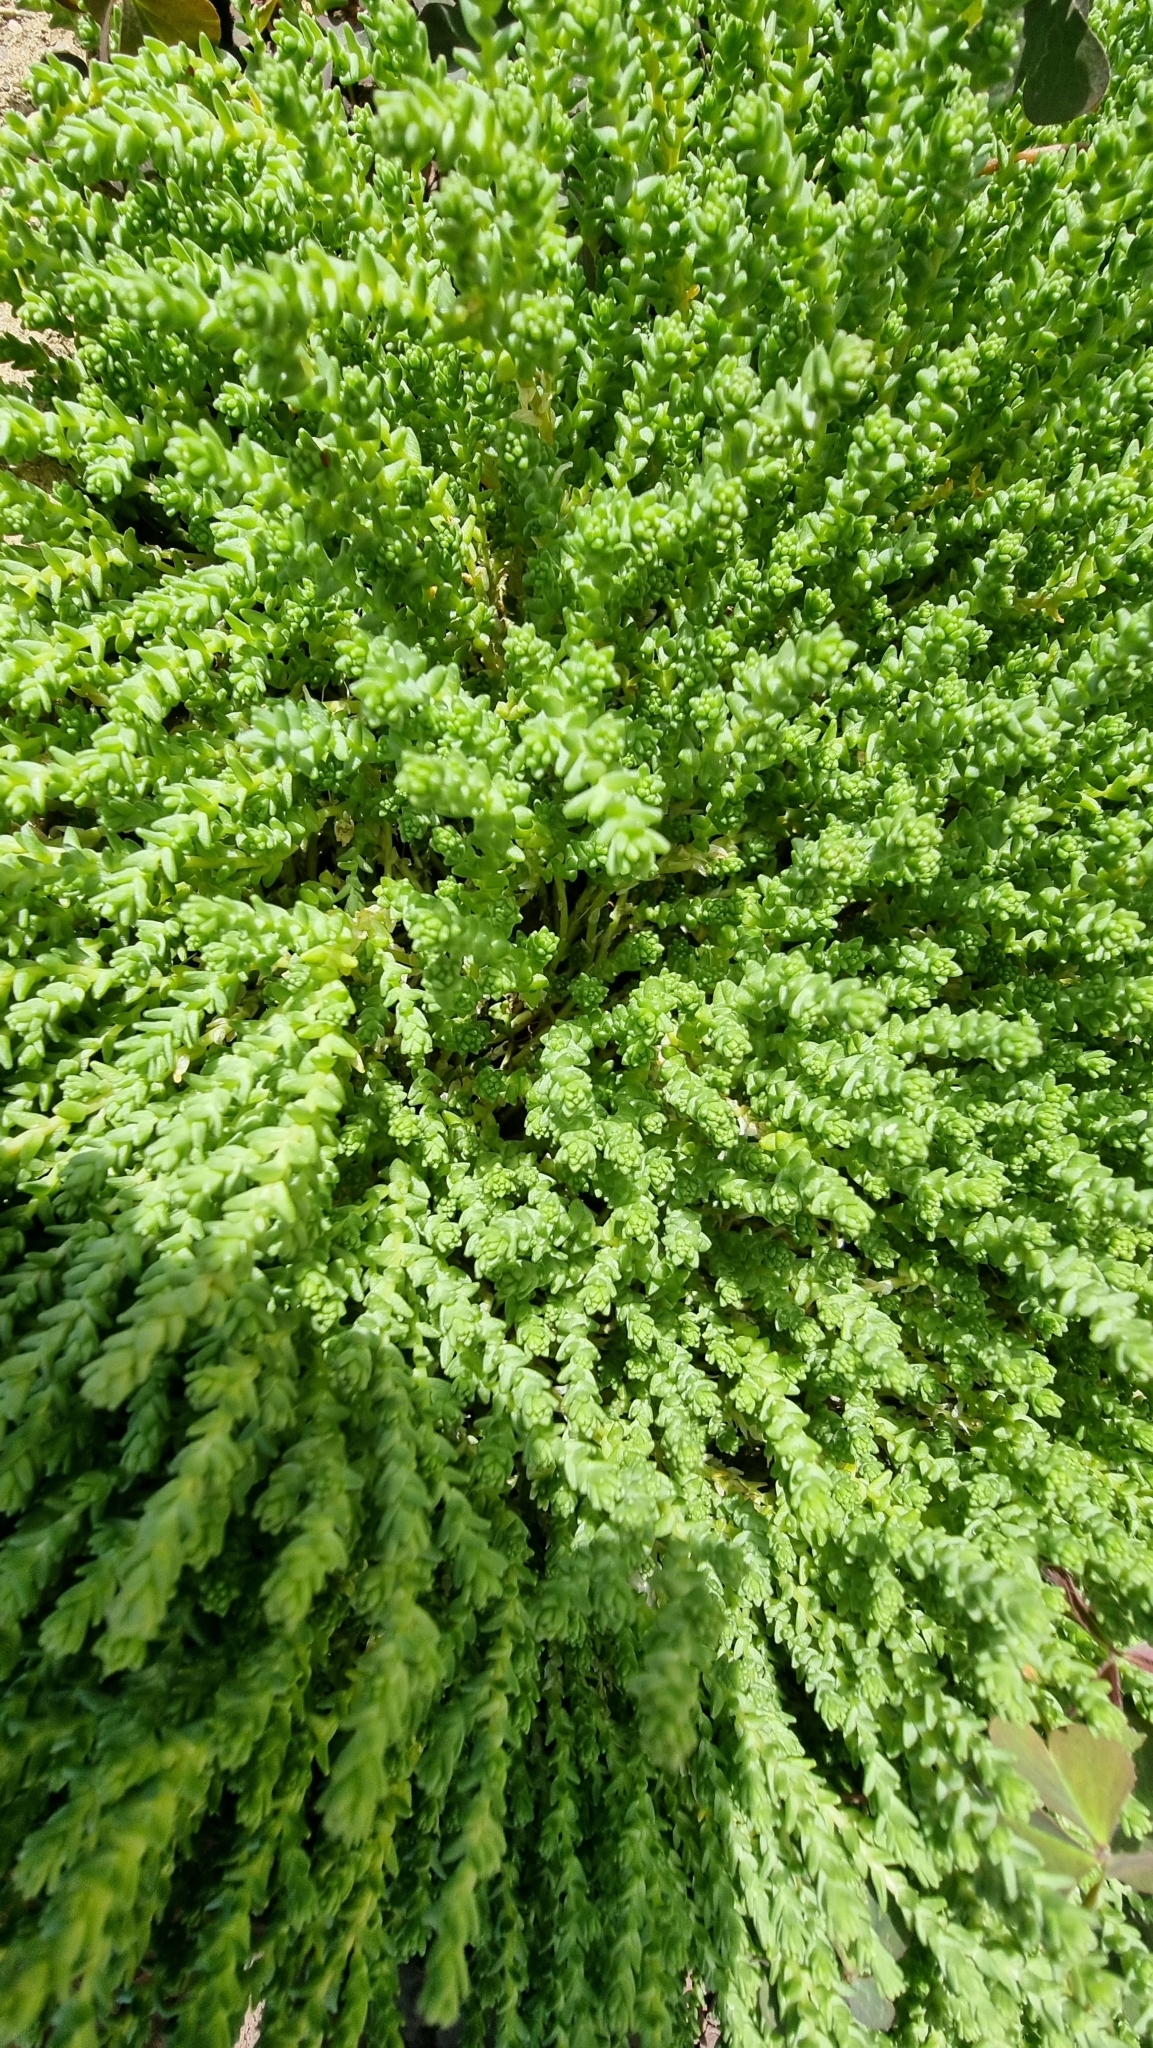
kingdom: Plantae
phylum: Tracheophyta
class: Magnoliopsida
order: Saxifragales
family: Crassulaceae
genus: Sedum
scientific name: Sedum acre
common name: Biting stonecrop
